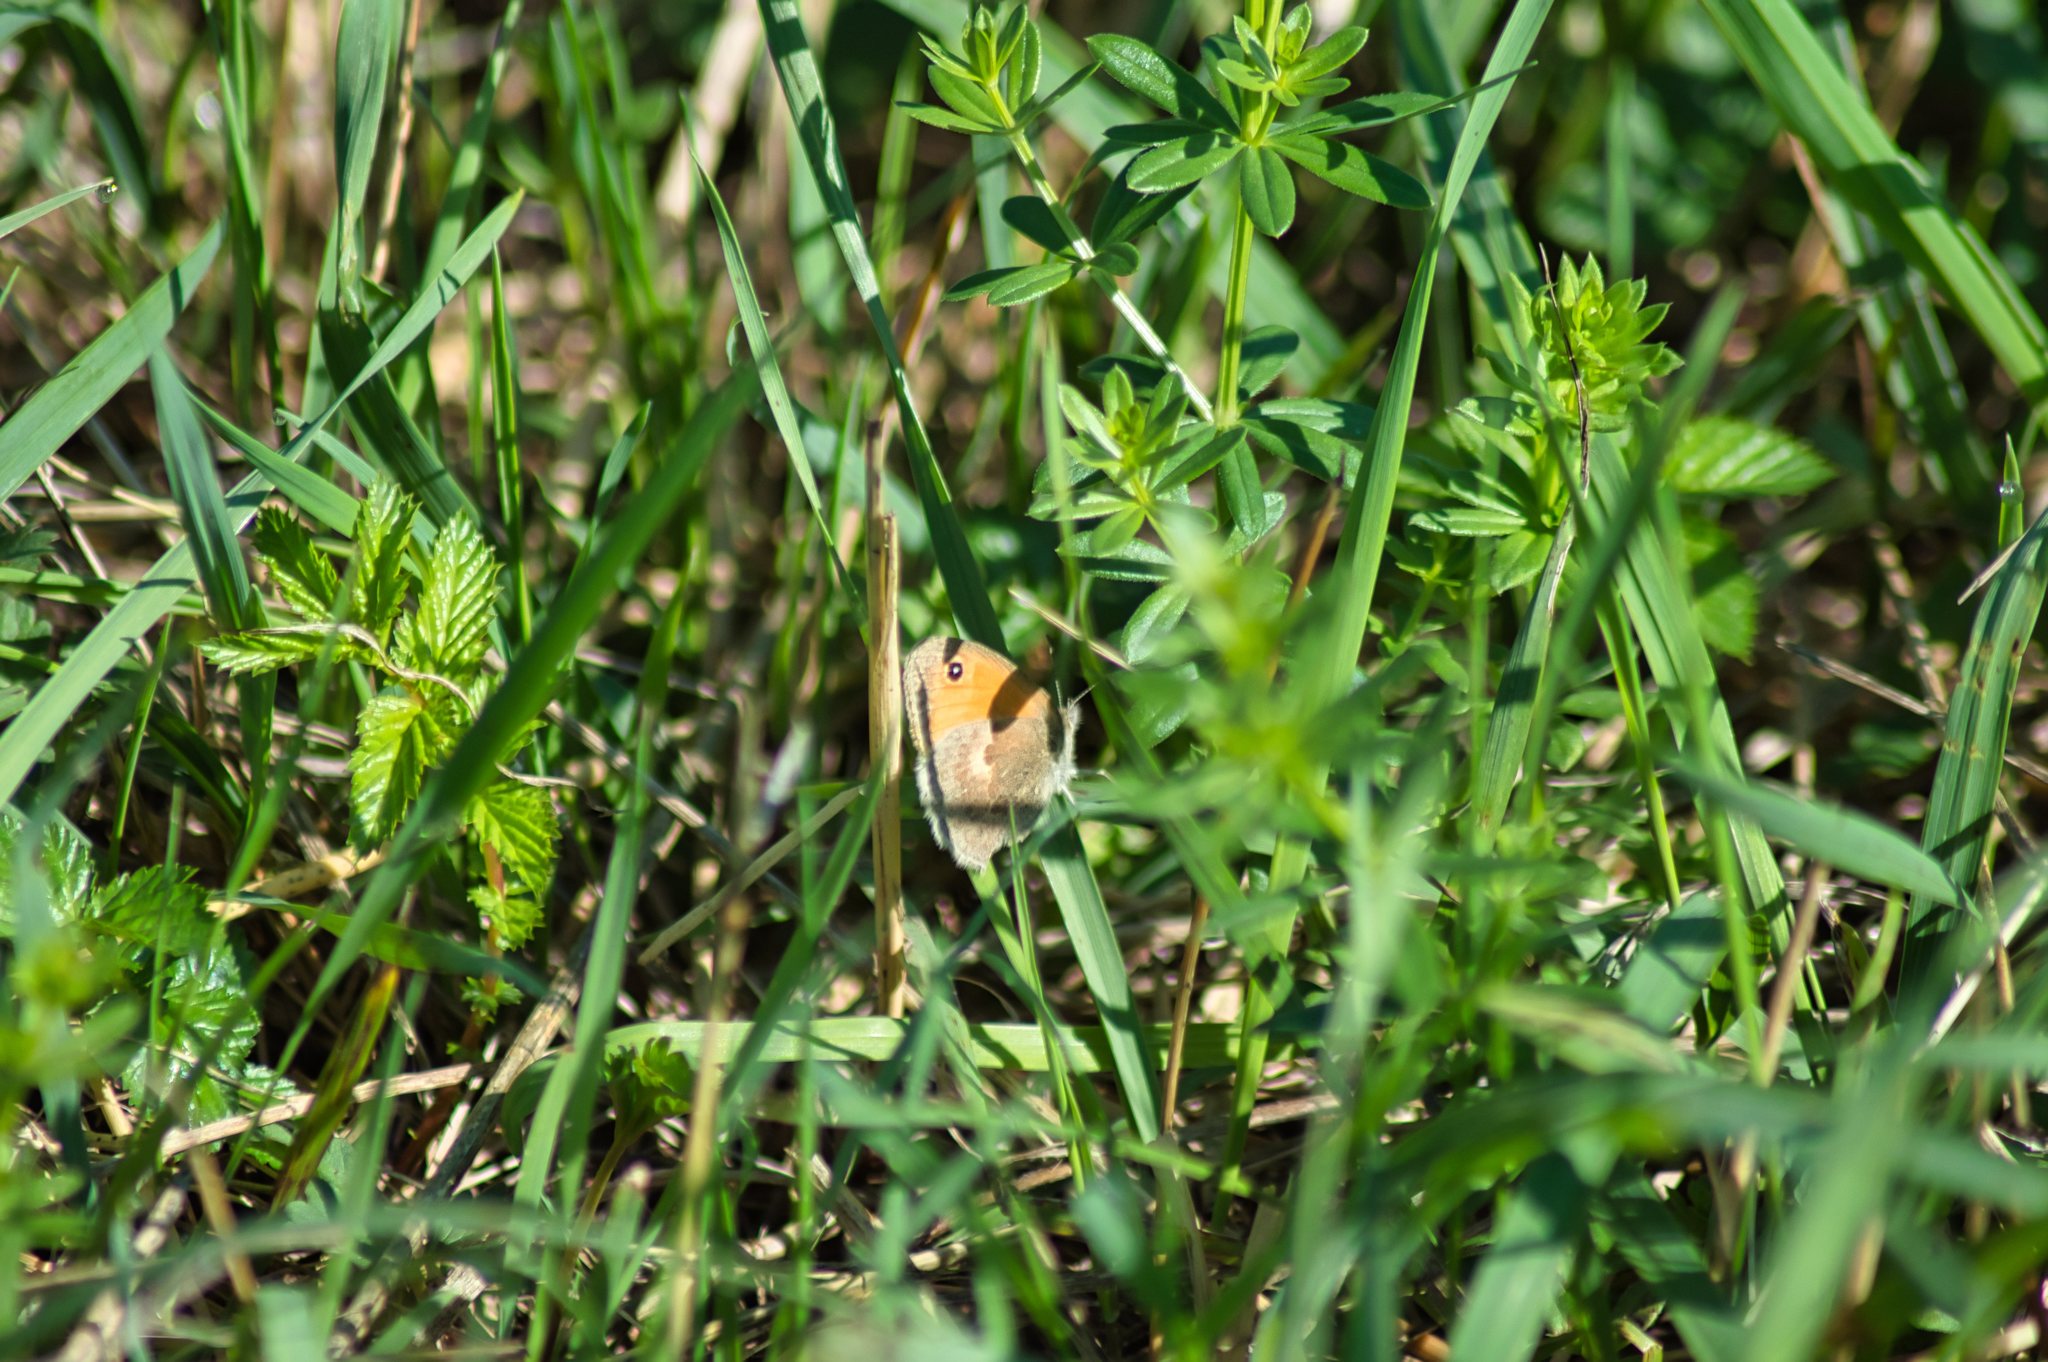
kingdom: Animalia
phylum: Arthropoda
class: Insecta
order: Lepidoptera
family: Nymphalidae
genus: Coenonympha
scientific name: Coenonympha pamphilus
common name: Small heath
